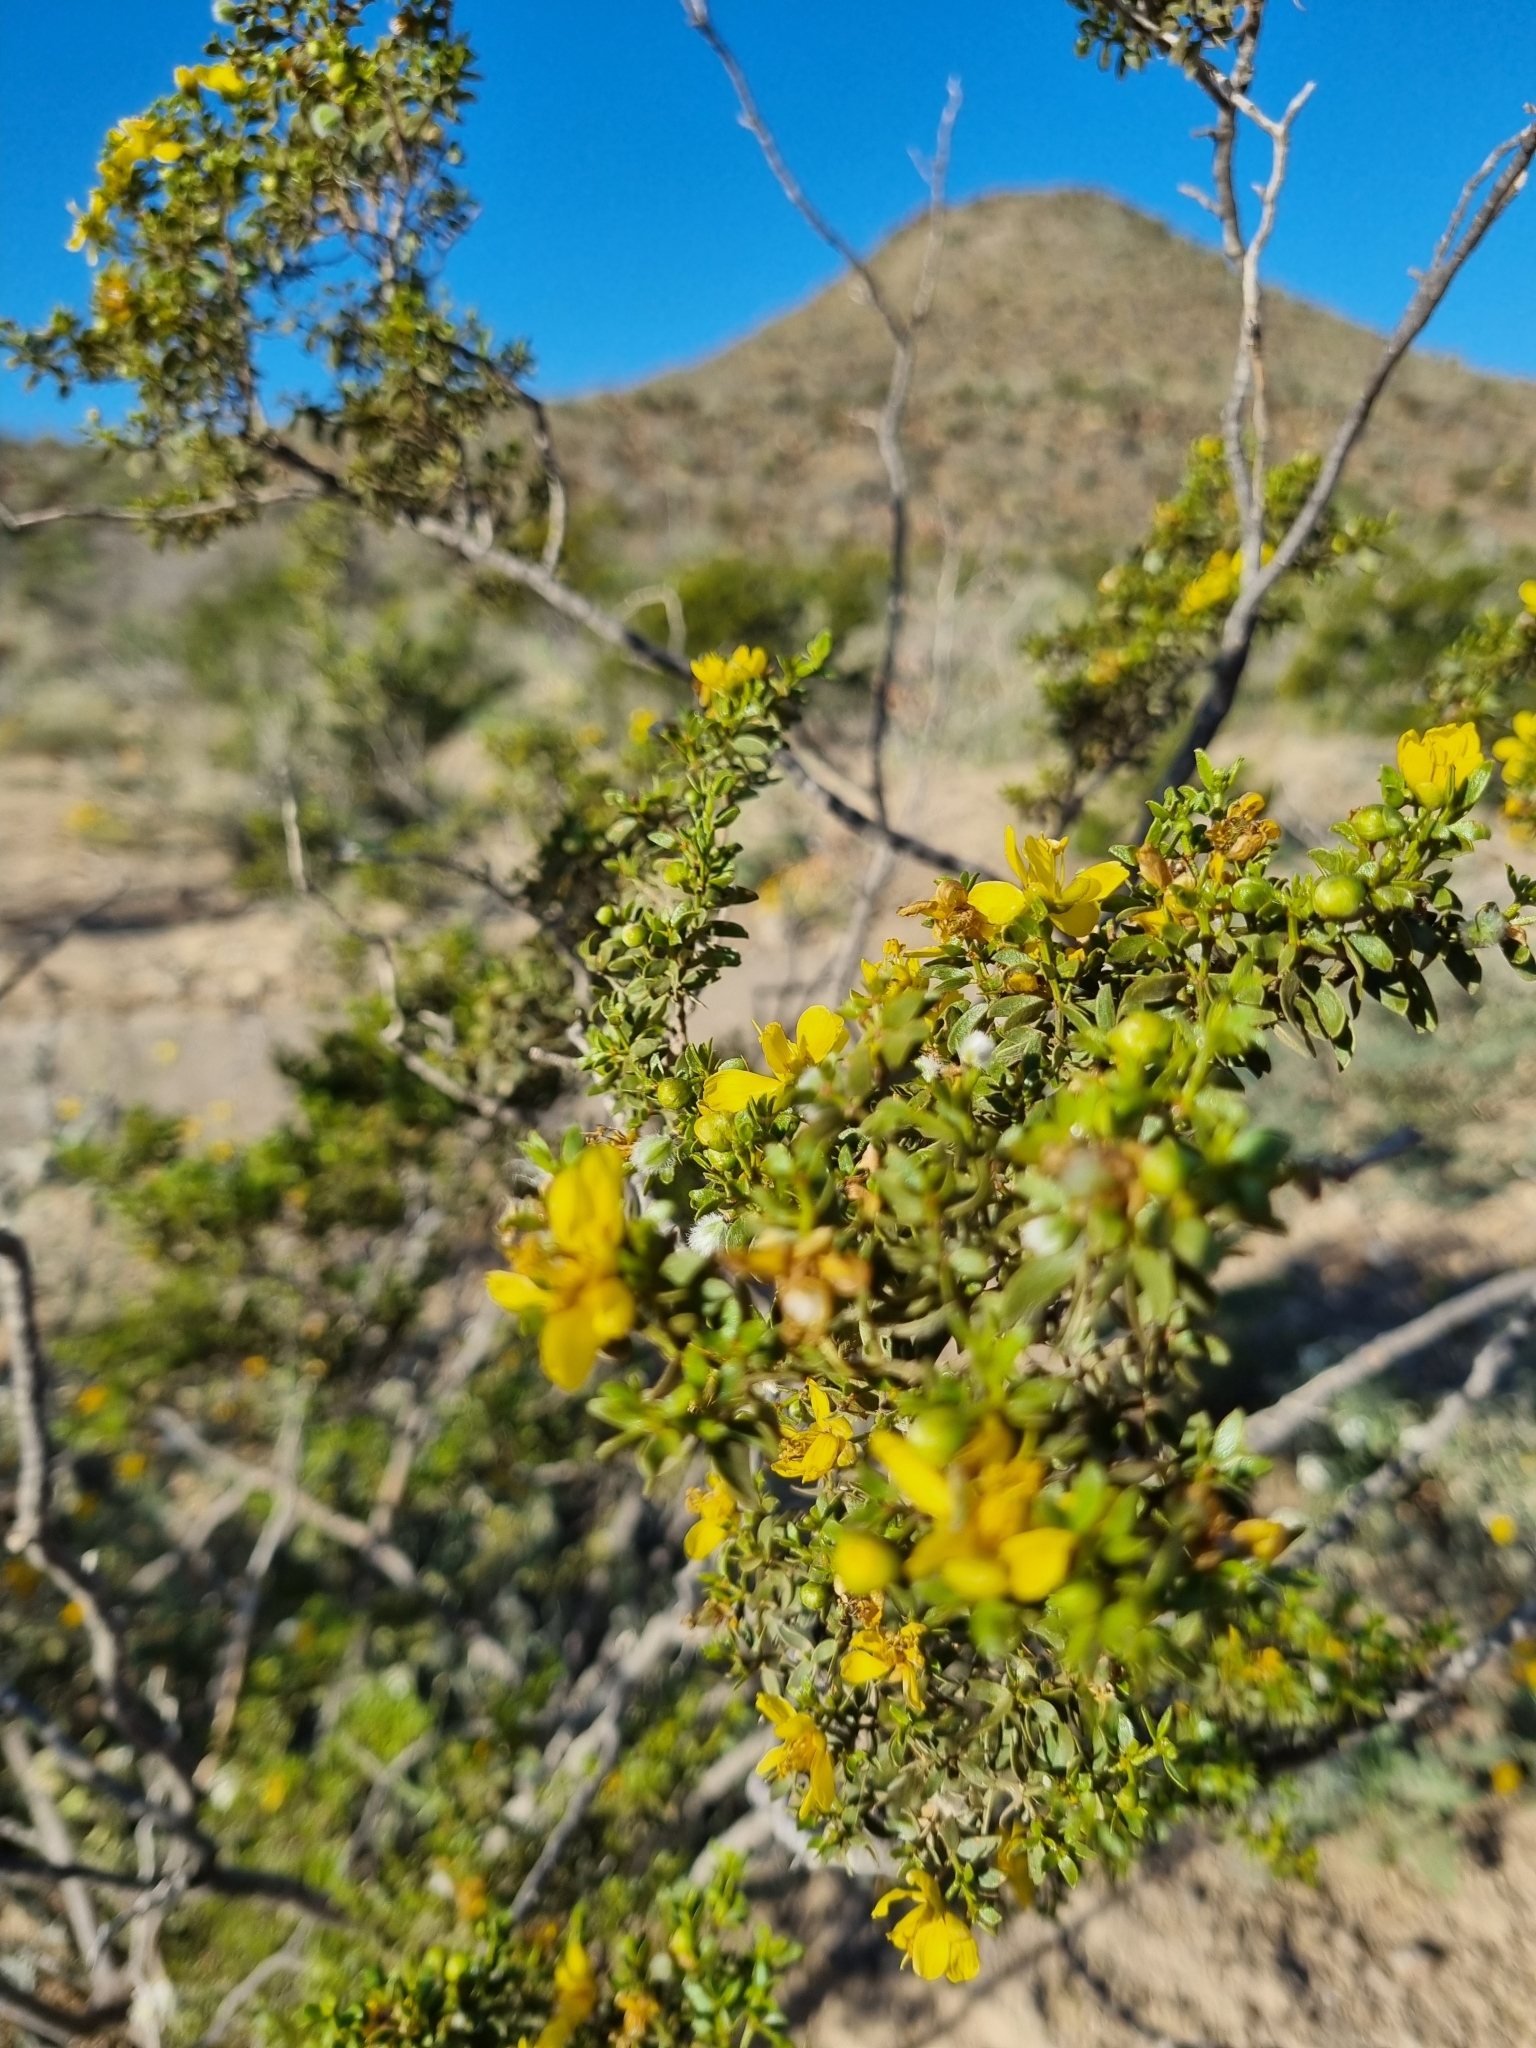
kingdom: Plantae
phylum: Tracheophyta
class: Magnoliopsida
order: Zygophyllales
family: Zygophyllaceae
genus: Larrea
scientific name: Larrea tridentata
